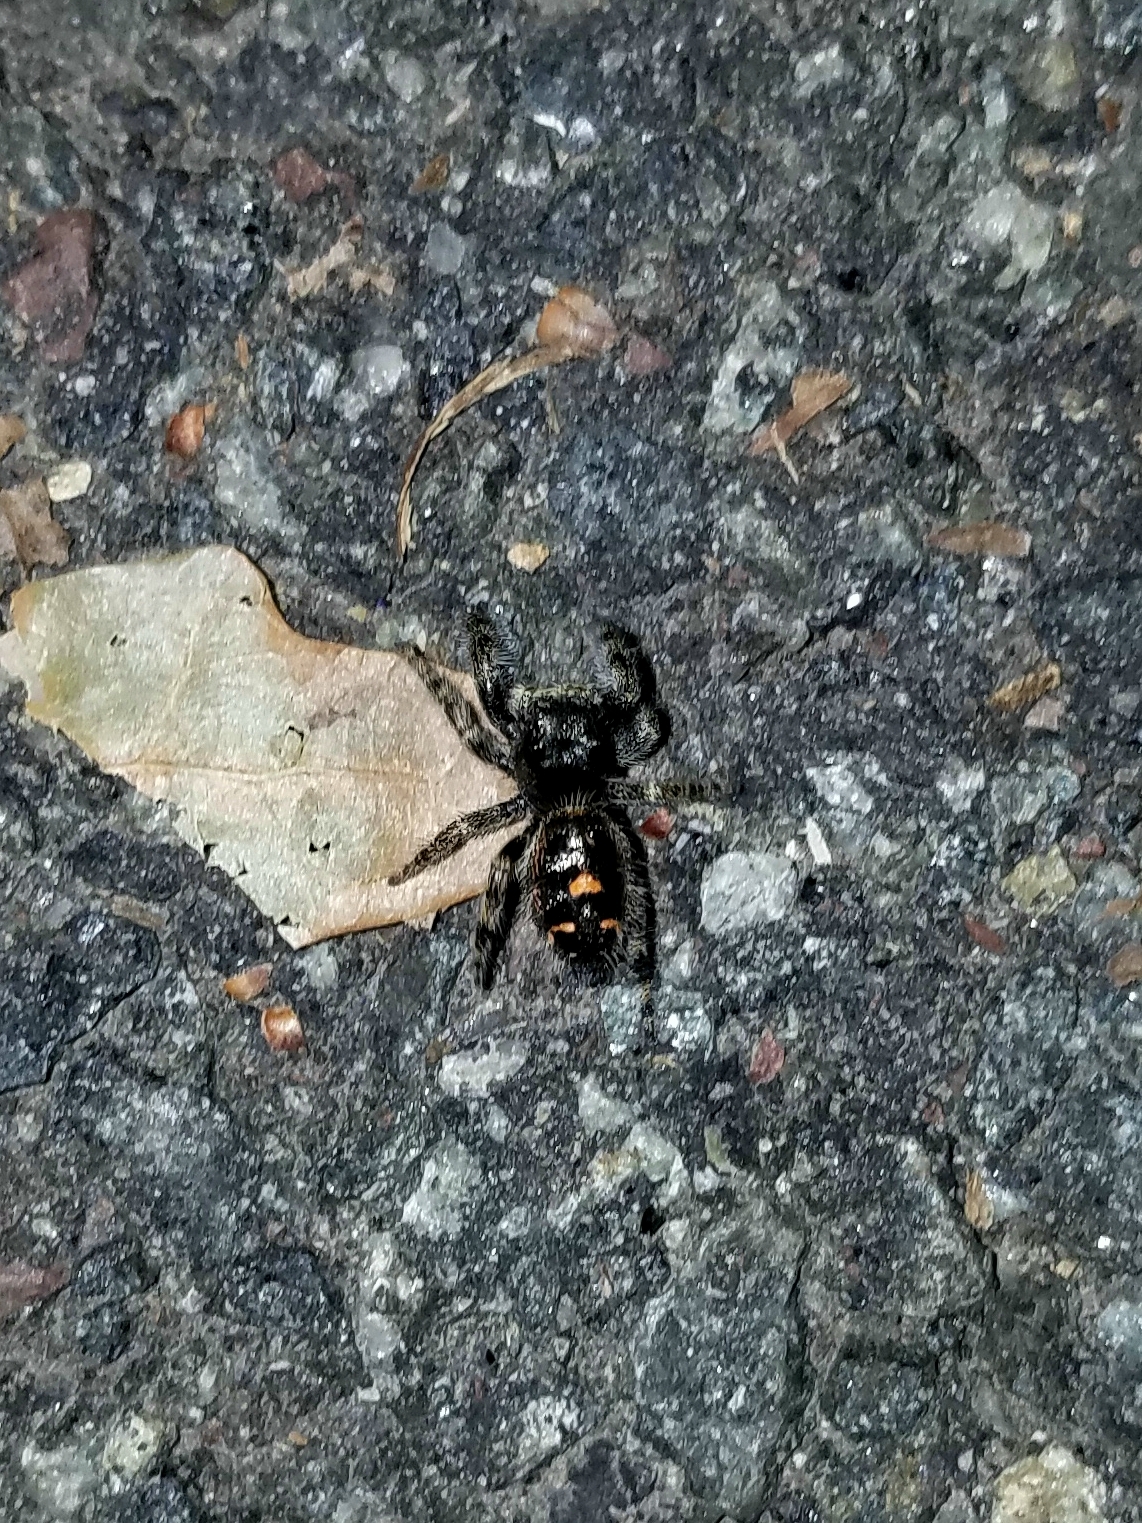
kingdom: Animalia
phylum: Arthropoda
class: Arachnida
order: Araneae
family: Salticidae
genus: Phidippus
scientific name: Phidippus audax
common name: Bold jumper
